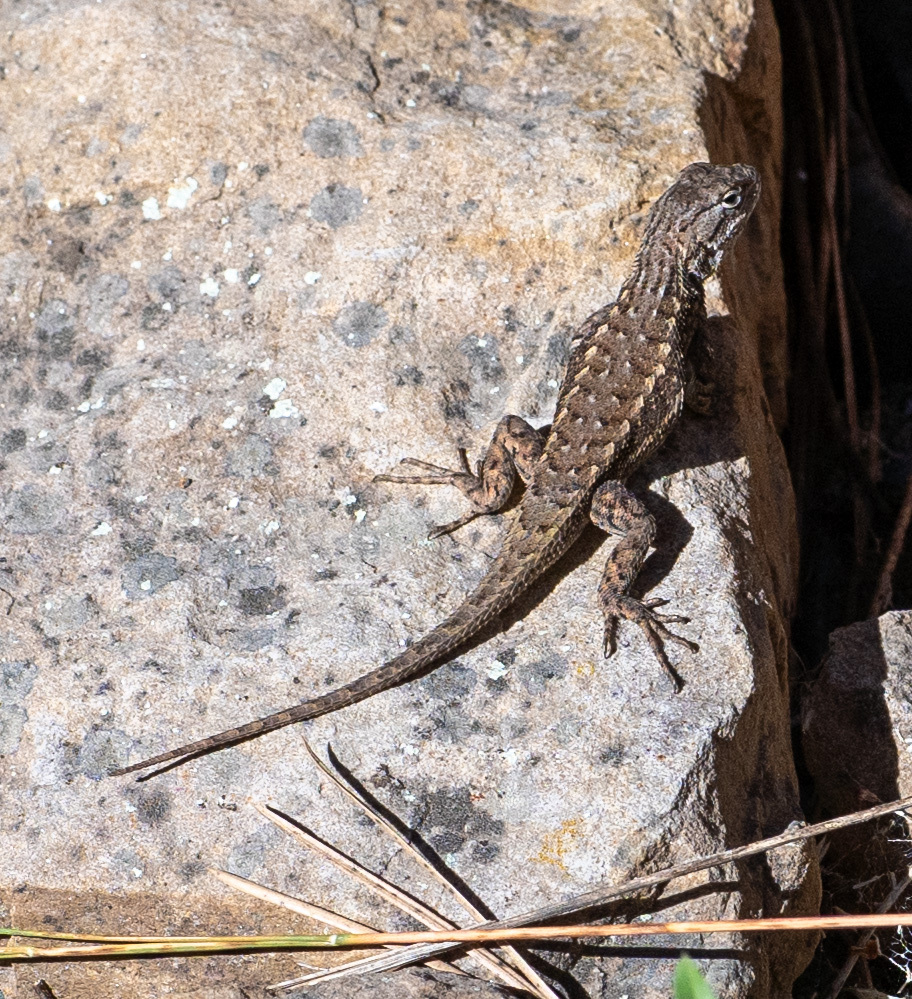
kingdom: Animalia
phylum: Chordata
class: Squamata
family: Phrynosomatidae
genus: Sceloporus
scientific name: Sceloporus tristichus
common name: Plateau fence lizard
